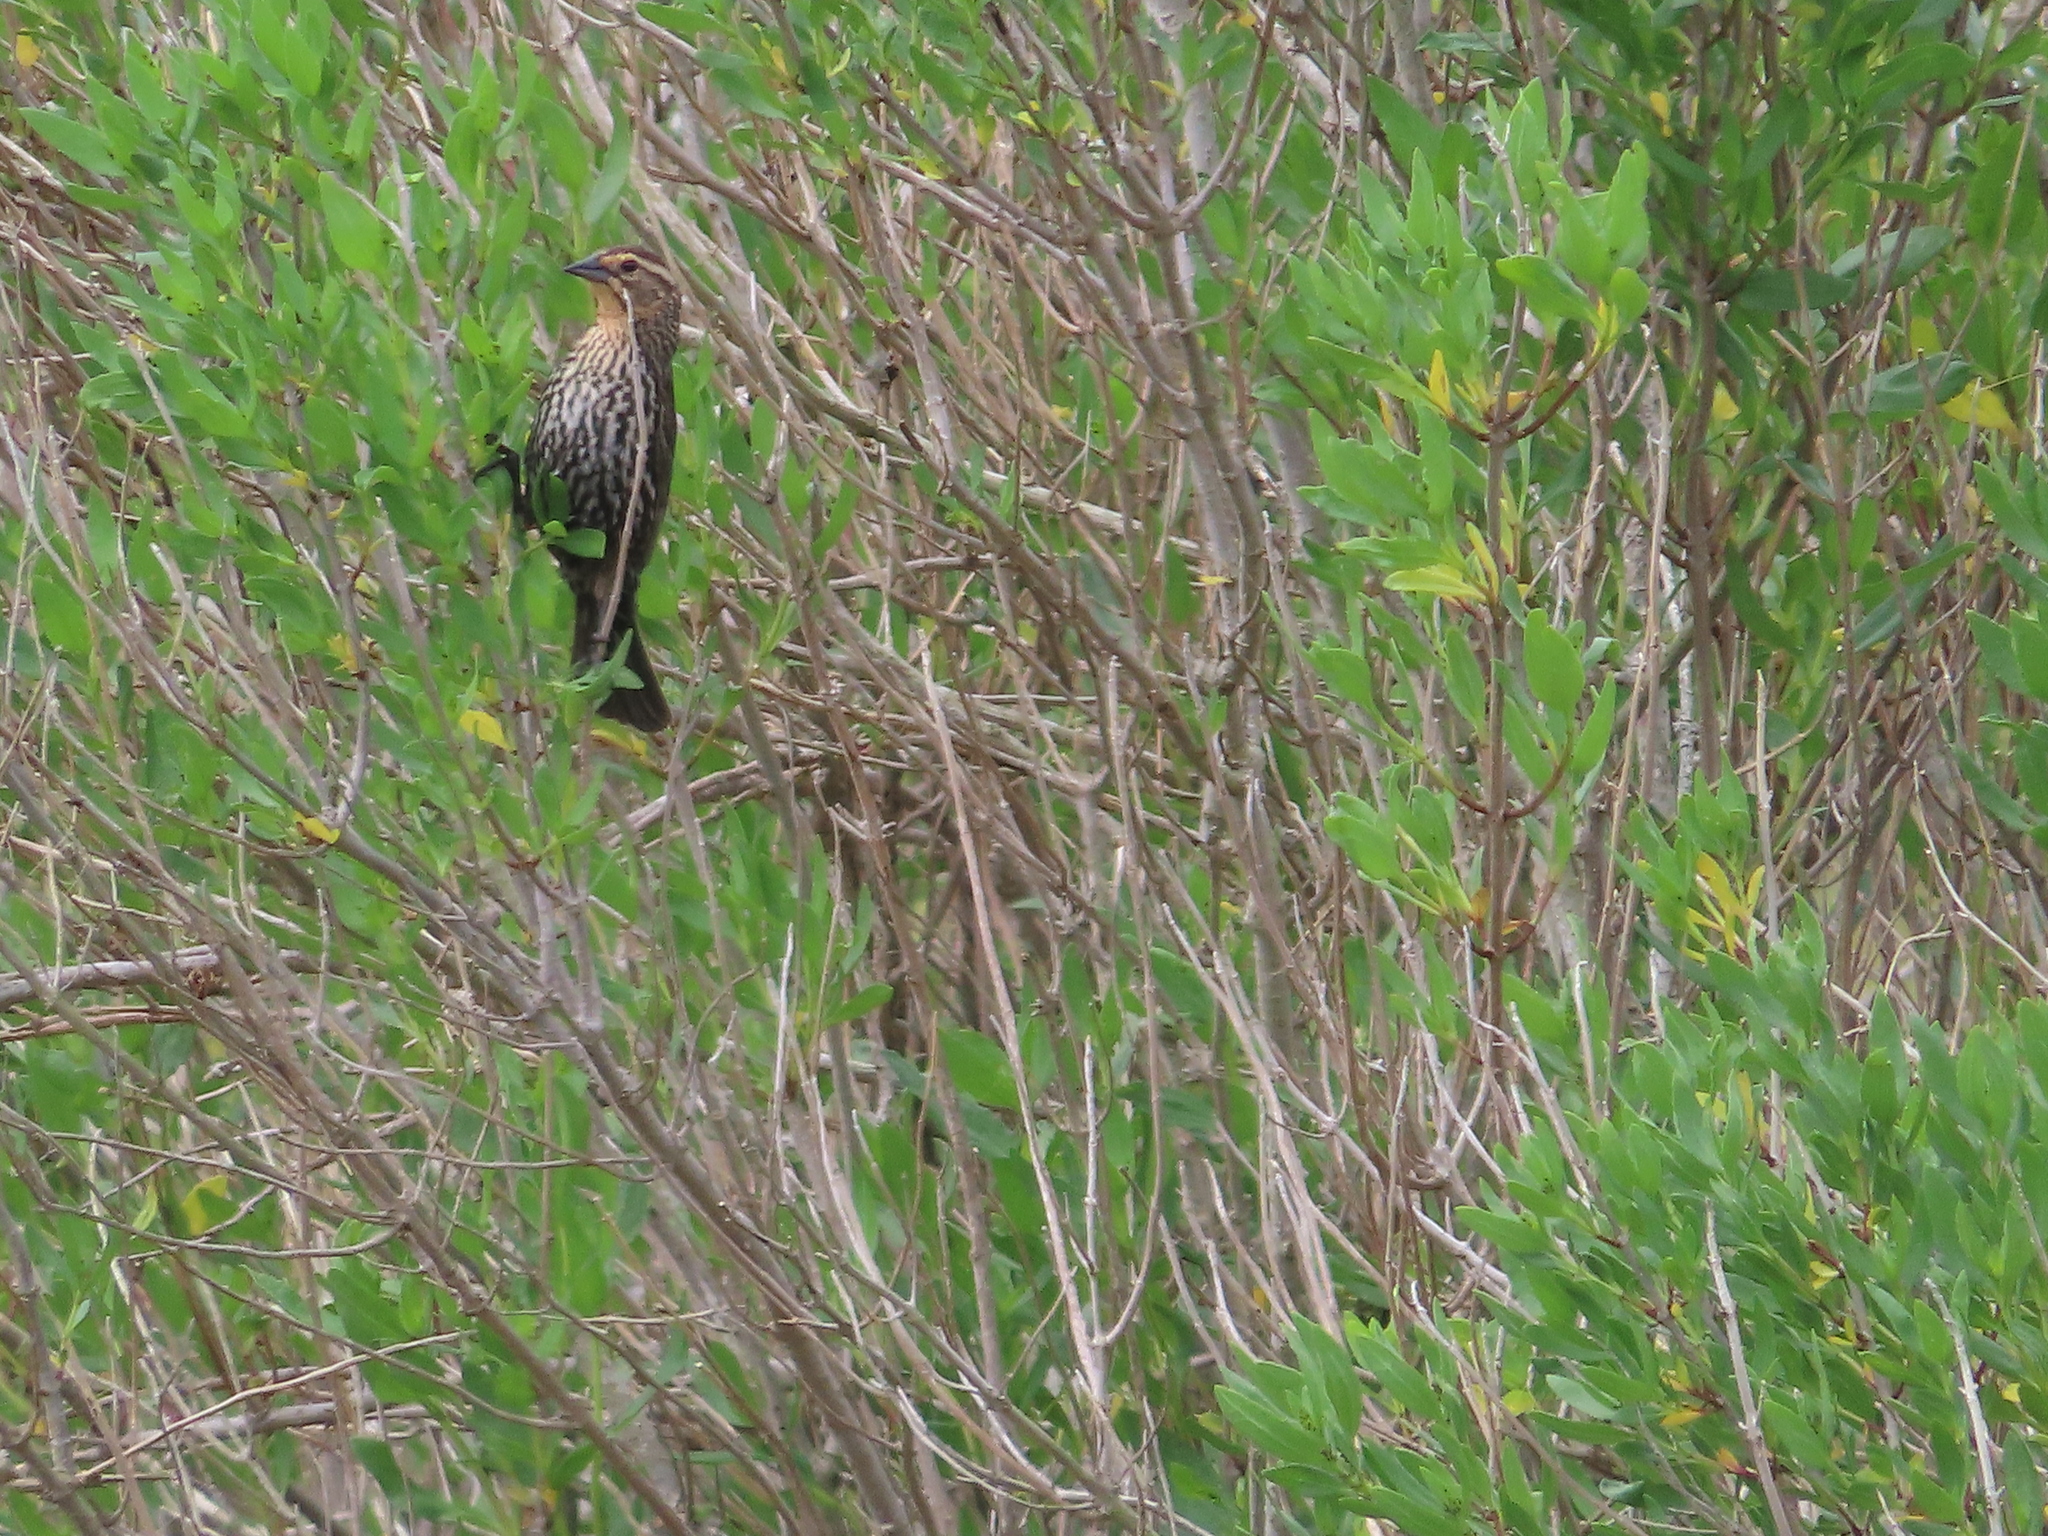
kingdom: Animalia
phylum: Chordata
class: Aves
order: Passeriformes
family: Icteridae
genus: Agelaius
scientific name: Agelaius phoeniceus
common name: Red-winged blackbird
